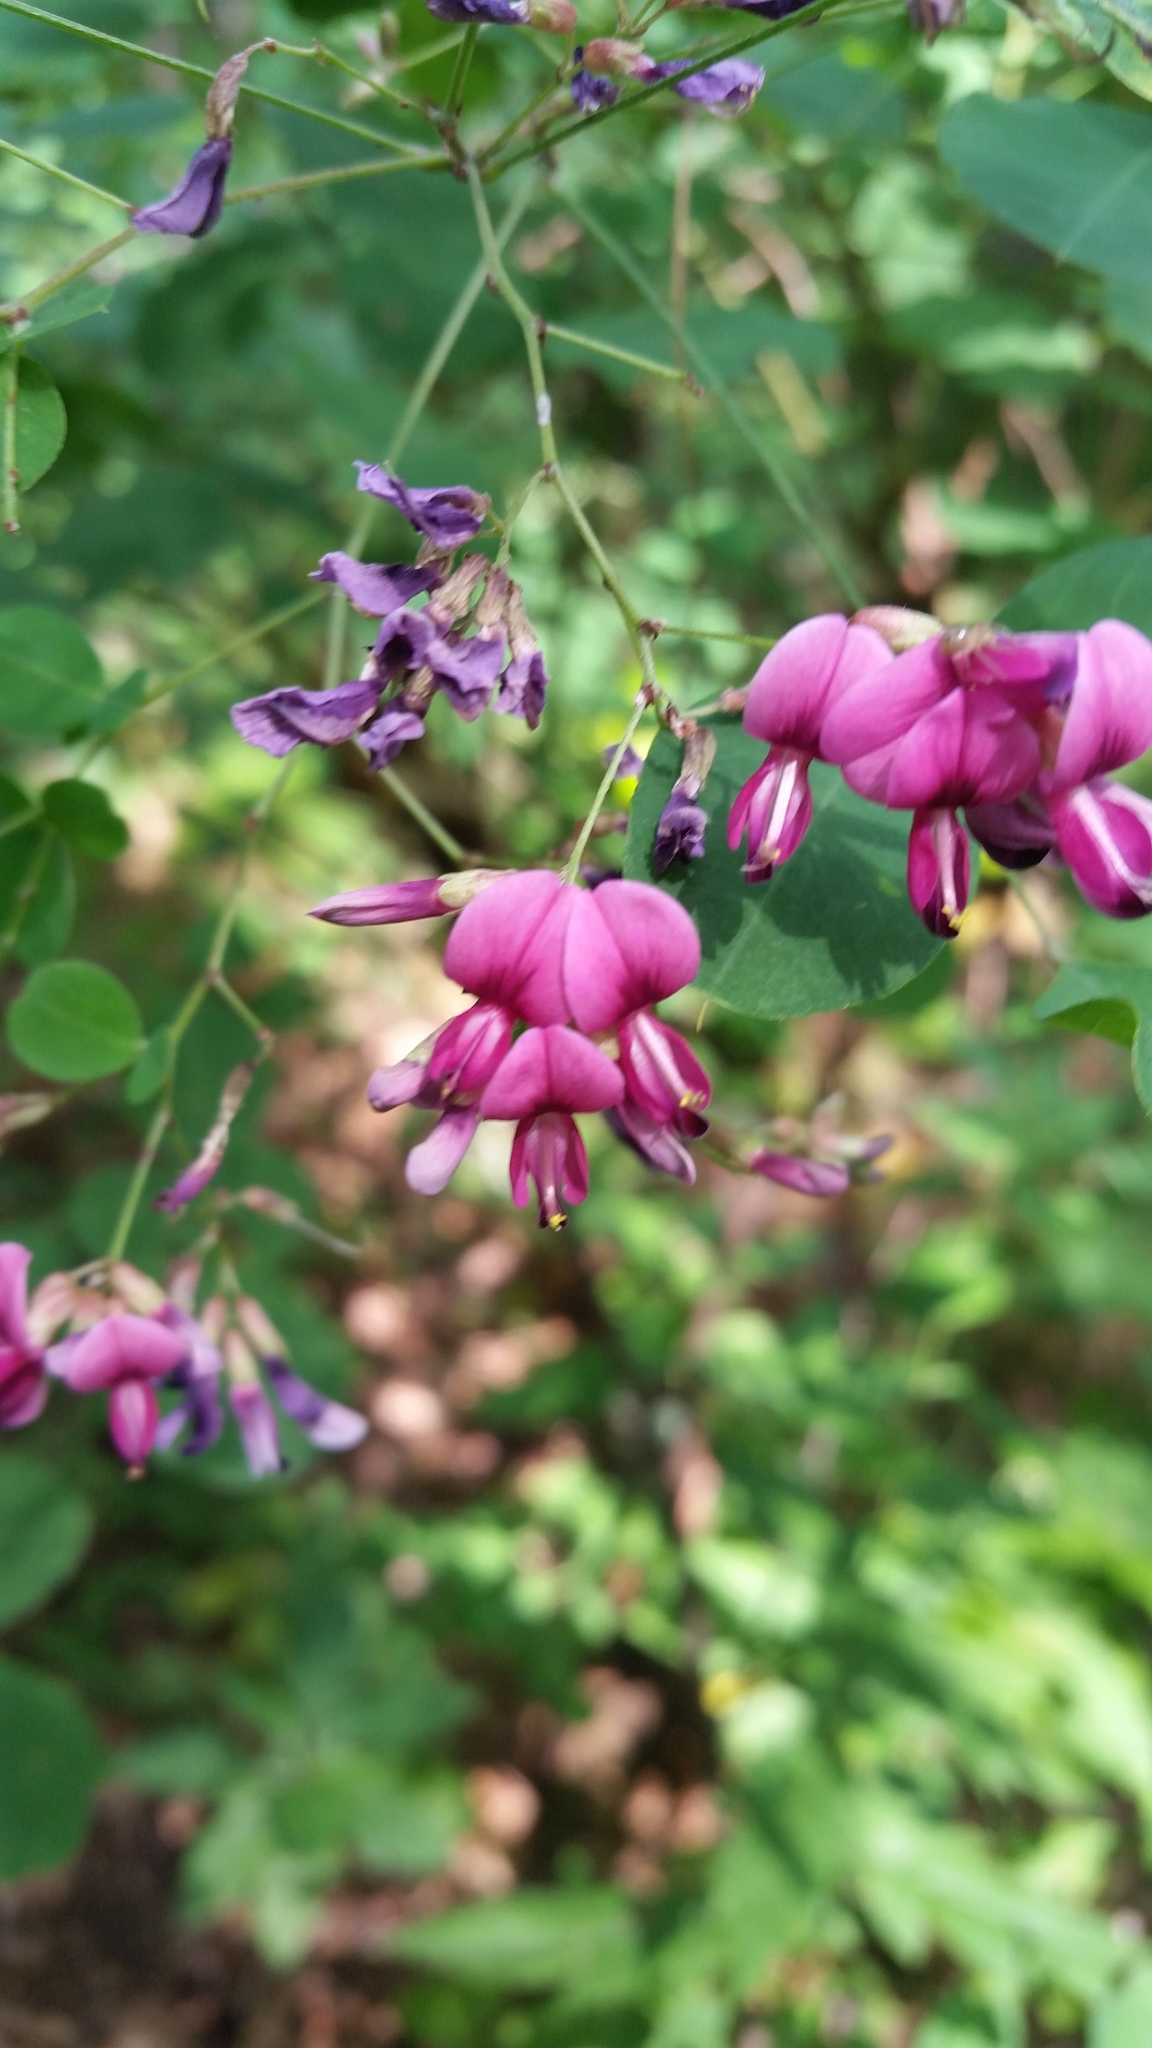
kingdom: Plantae
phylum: Tracheophyta
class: Magnoliopsida
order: Fabales
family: Fabaceae
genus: Lespedeza
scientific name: Lespedeza bicolor
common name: Shrub lespedeza
